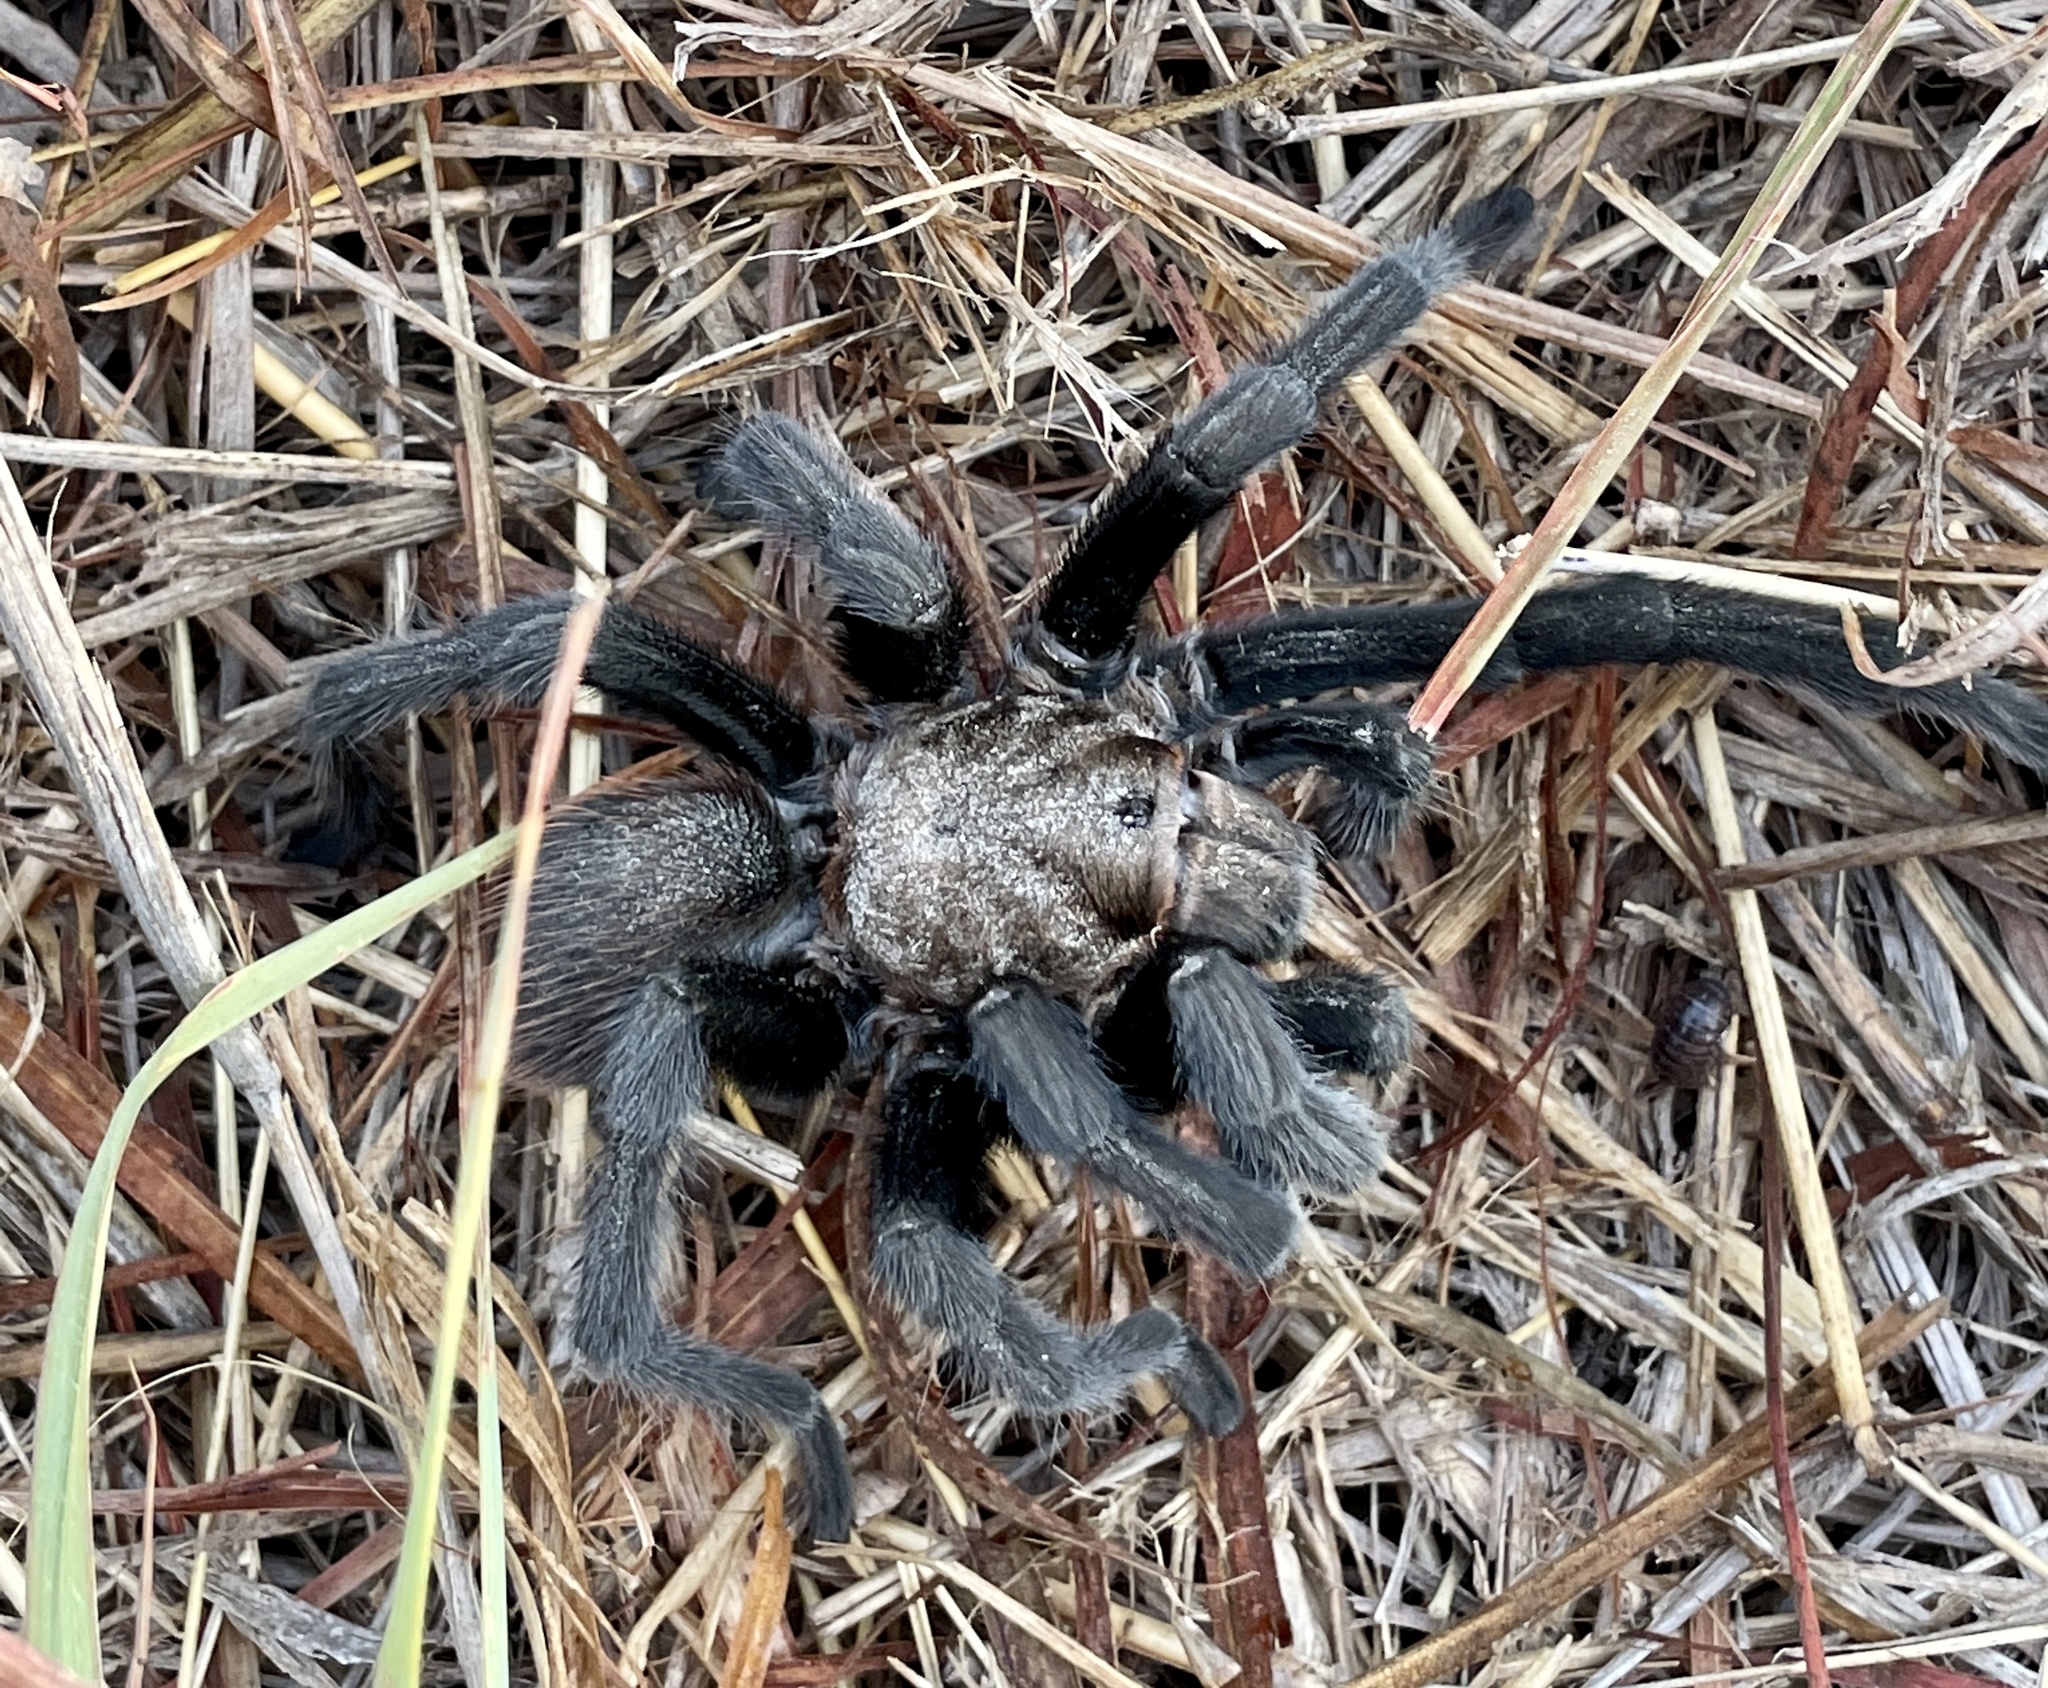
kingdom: Animalia
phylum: Arthropoda
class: Arachnida
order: Araneae
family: Theraphosidae
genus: Aphonopelma
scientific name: Aphonopelma anax
